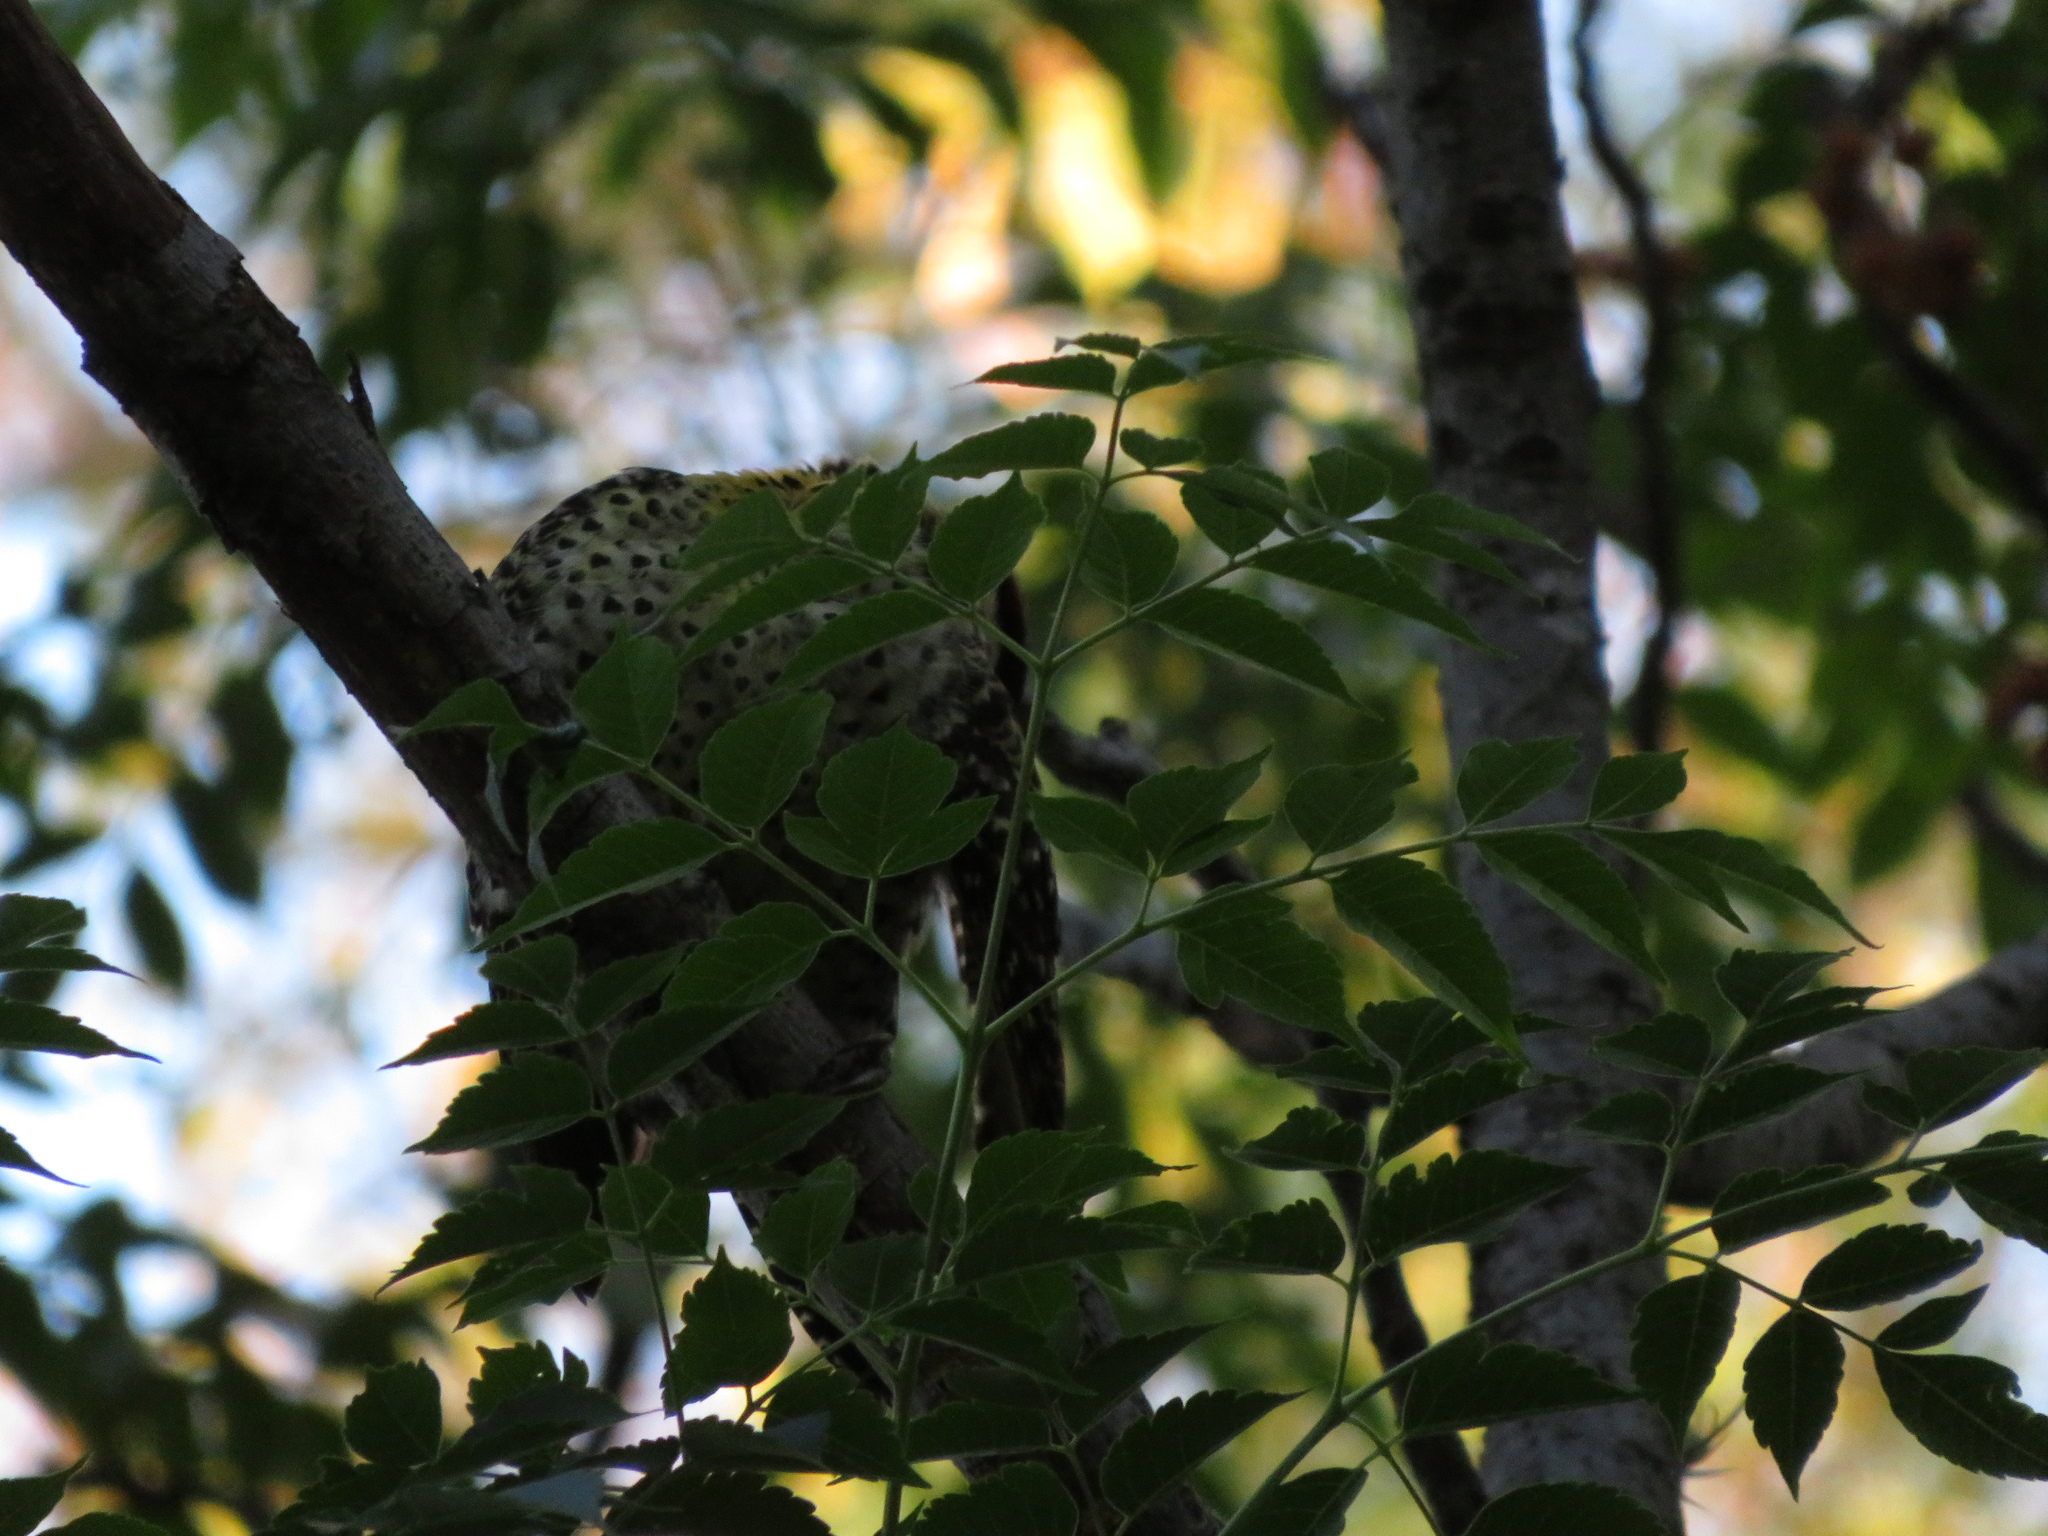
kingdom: Animalia
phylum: Chordata
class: Aves
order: Piciformes
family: Picidae
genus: Colaptes
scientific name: Colaptes melanochloros
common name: Green-barred woodpecker
